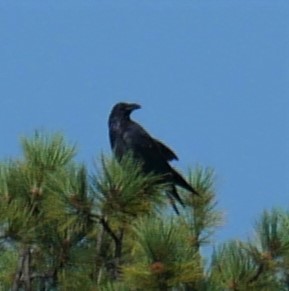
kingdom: Animalia
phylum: Chordata
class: Aves
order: Passeriformes
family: Corvidae
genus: Corvus
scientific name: Corvus corax
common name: Common raven
